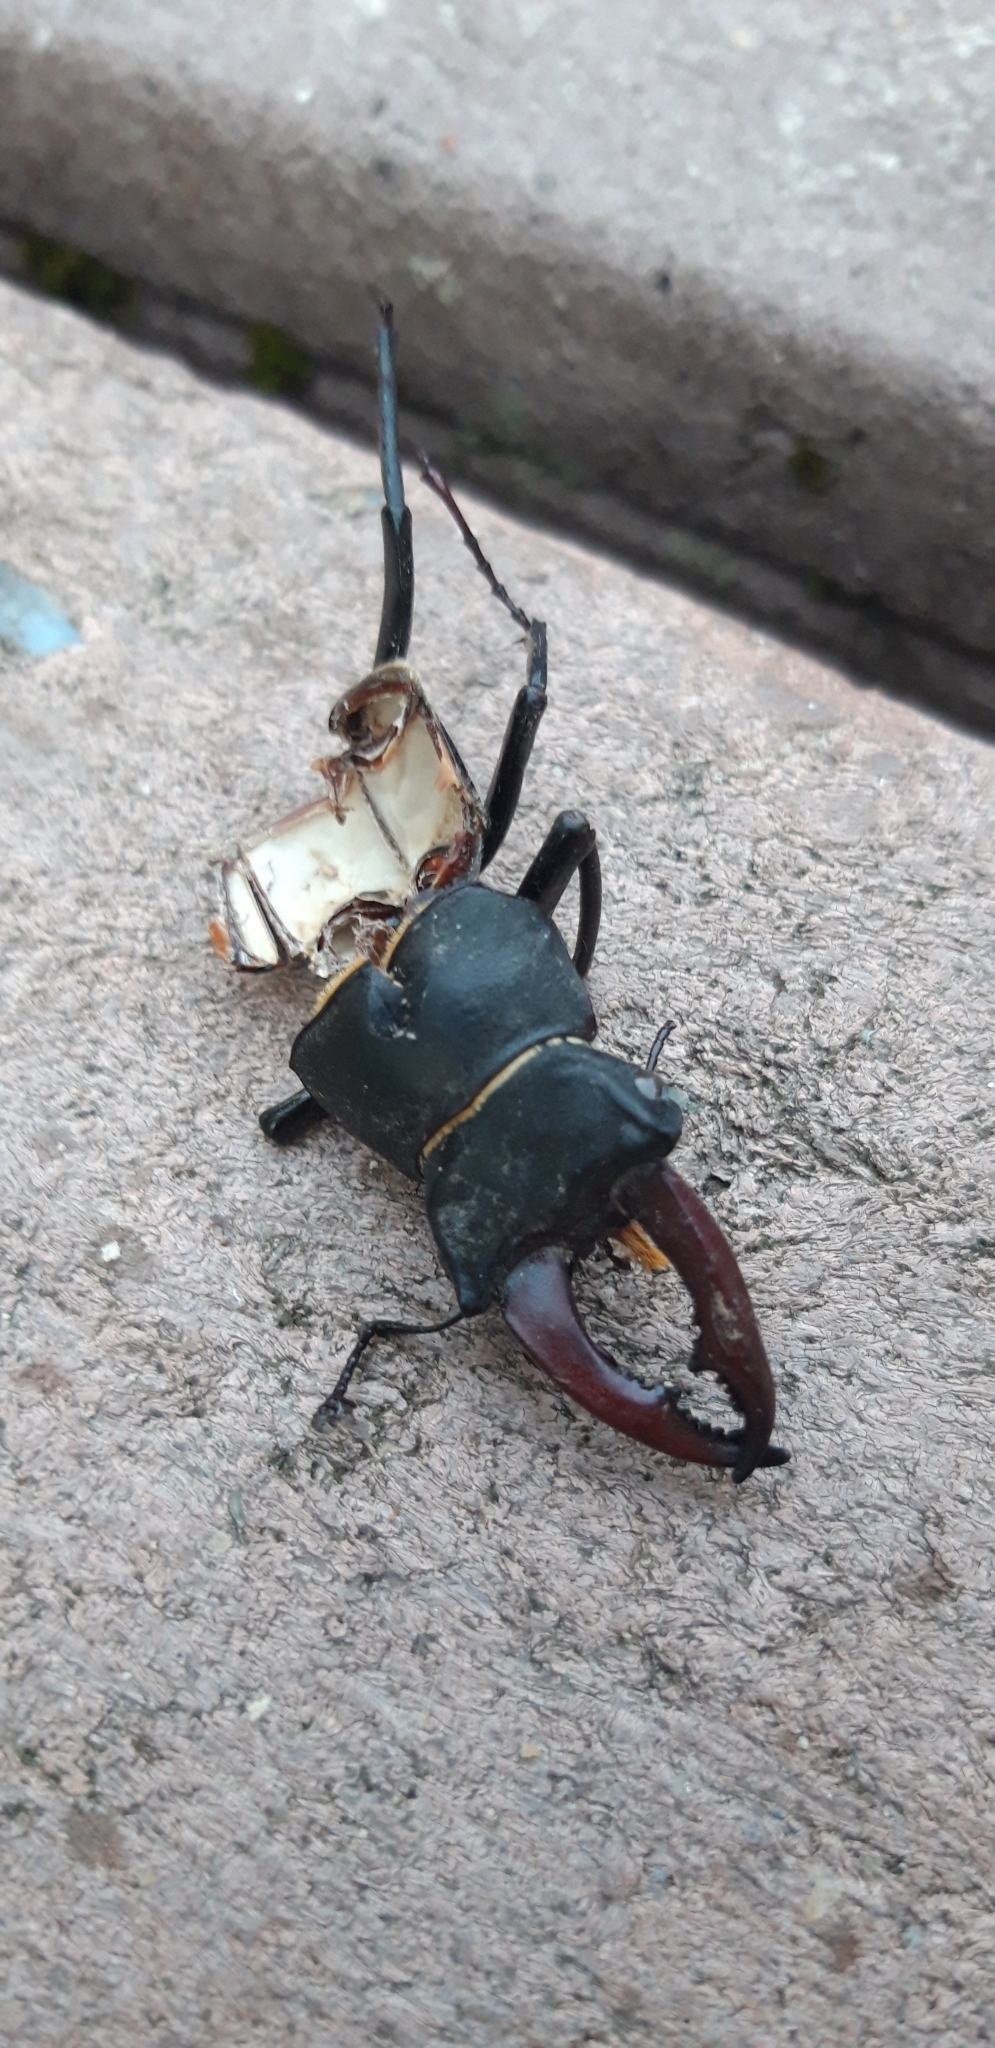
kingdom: Animalia
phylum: Arthropoda
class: Insecta
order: Coleoptera
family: Lucanidae
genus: Lucanus
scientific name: Lucanus cervus
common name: Stag beetle
